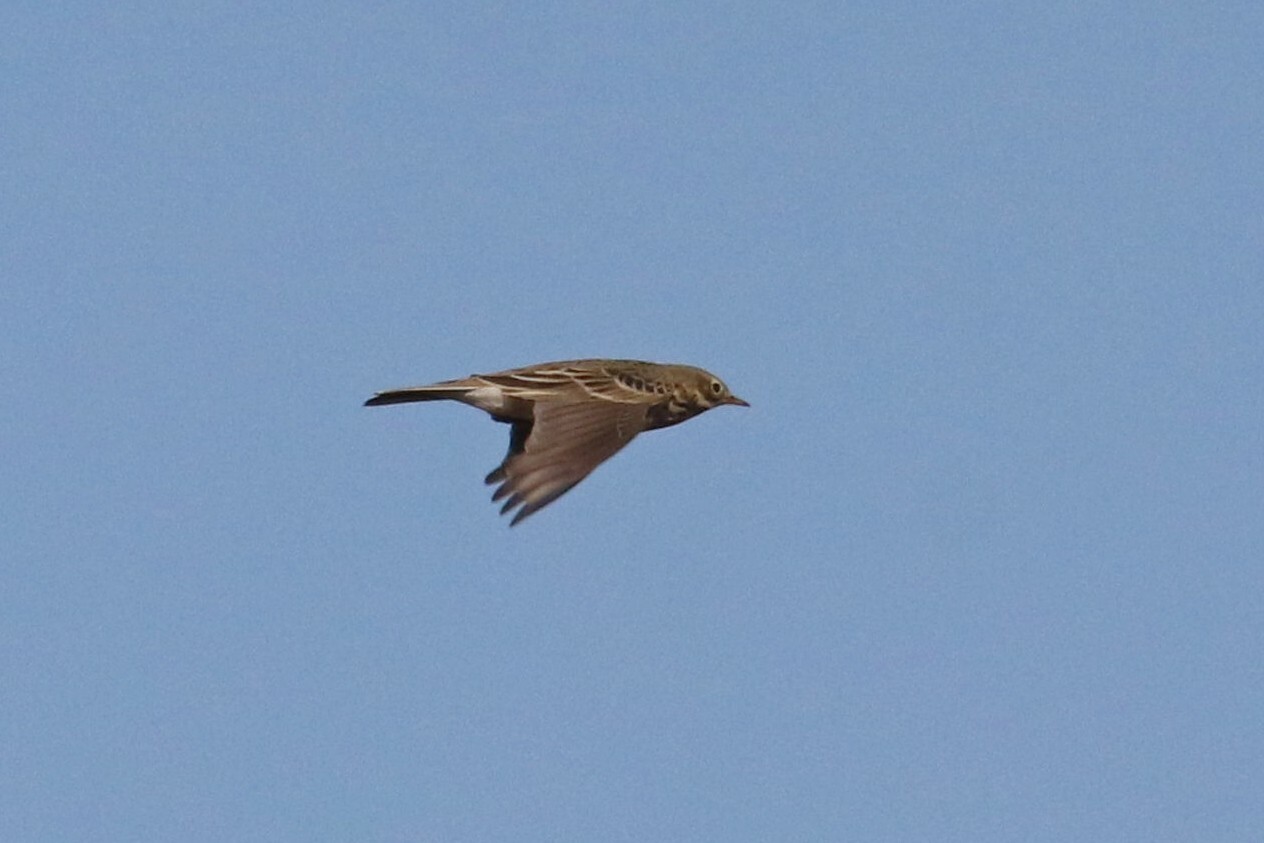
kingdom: Animalia
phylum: Chordata
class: Aves
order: Passeriformes
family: Motacillidae
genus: Anthus
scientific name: Anthus pratensis
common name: Meadow pipit
